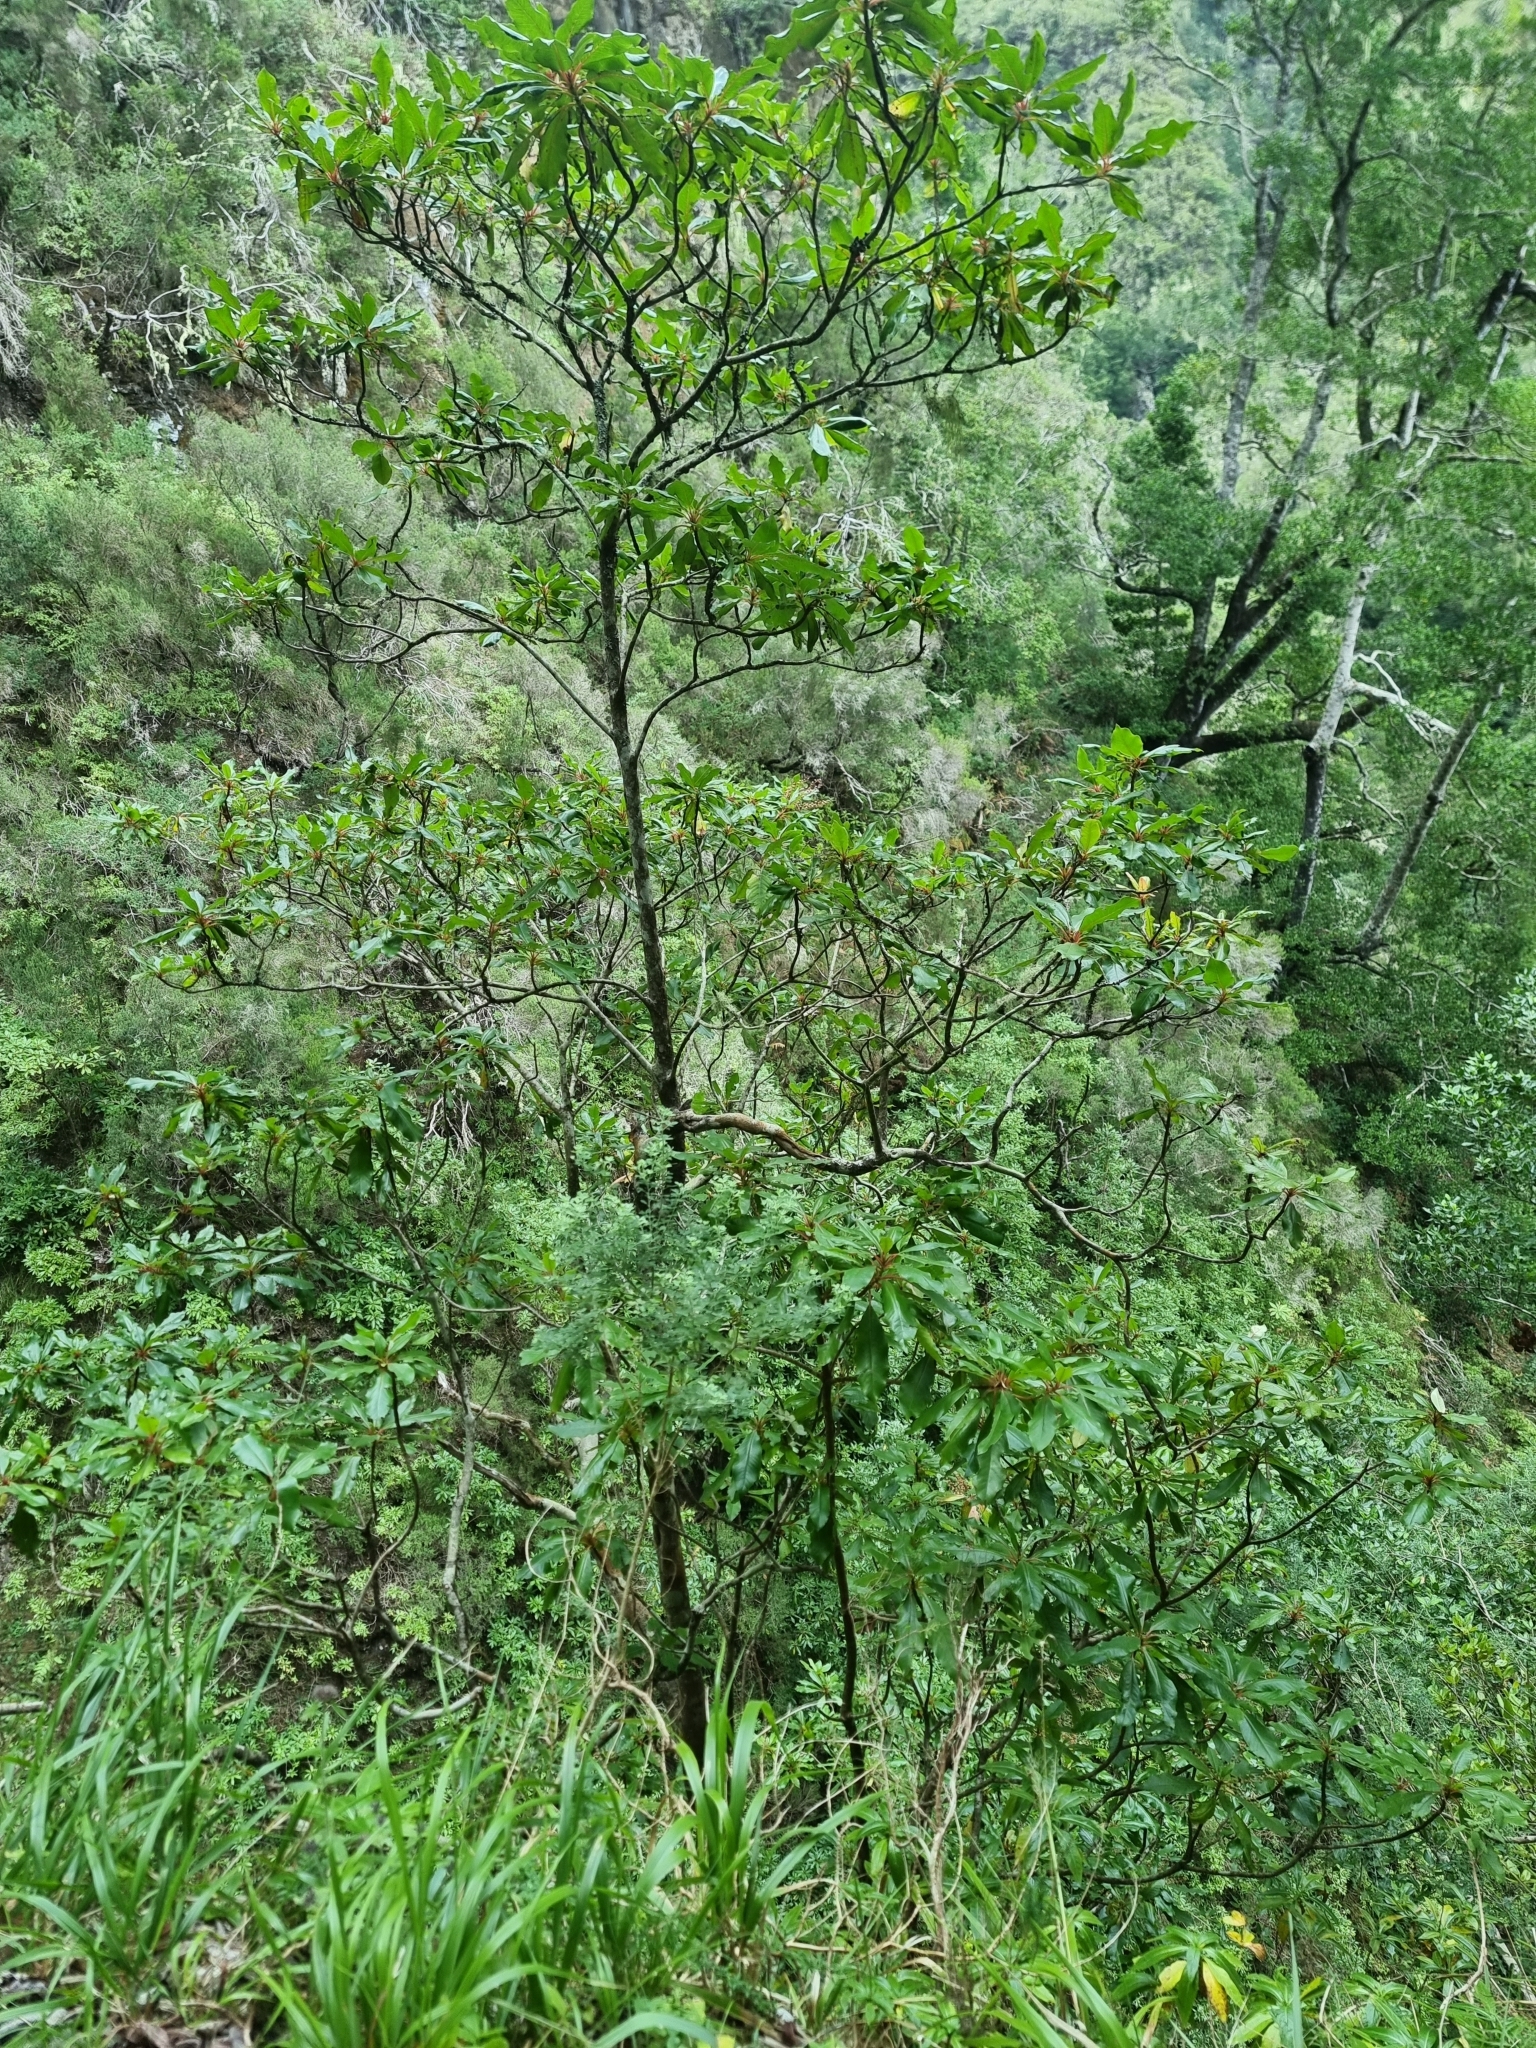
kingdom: Plantae
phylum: Tracheophyta
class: Magnoliopsida
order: Ericales
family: Clethraceae
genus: Clethra
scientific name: Clethra arborea
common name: Lily-of-the-valley-tree
